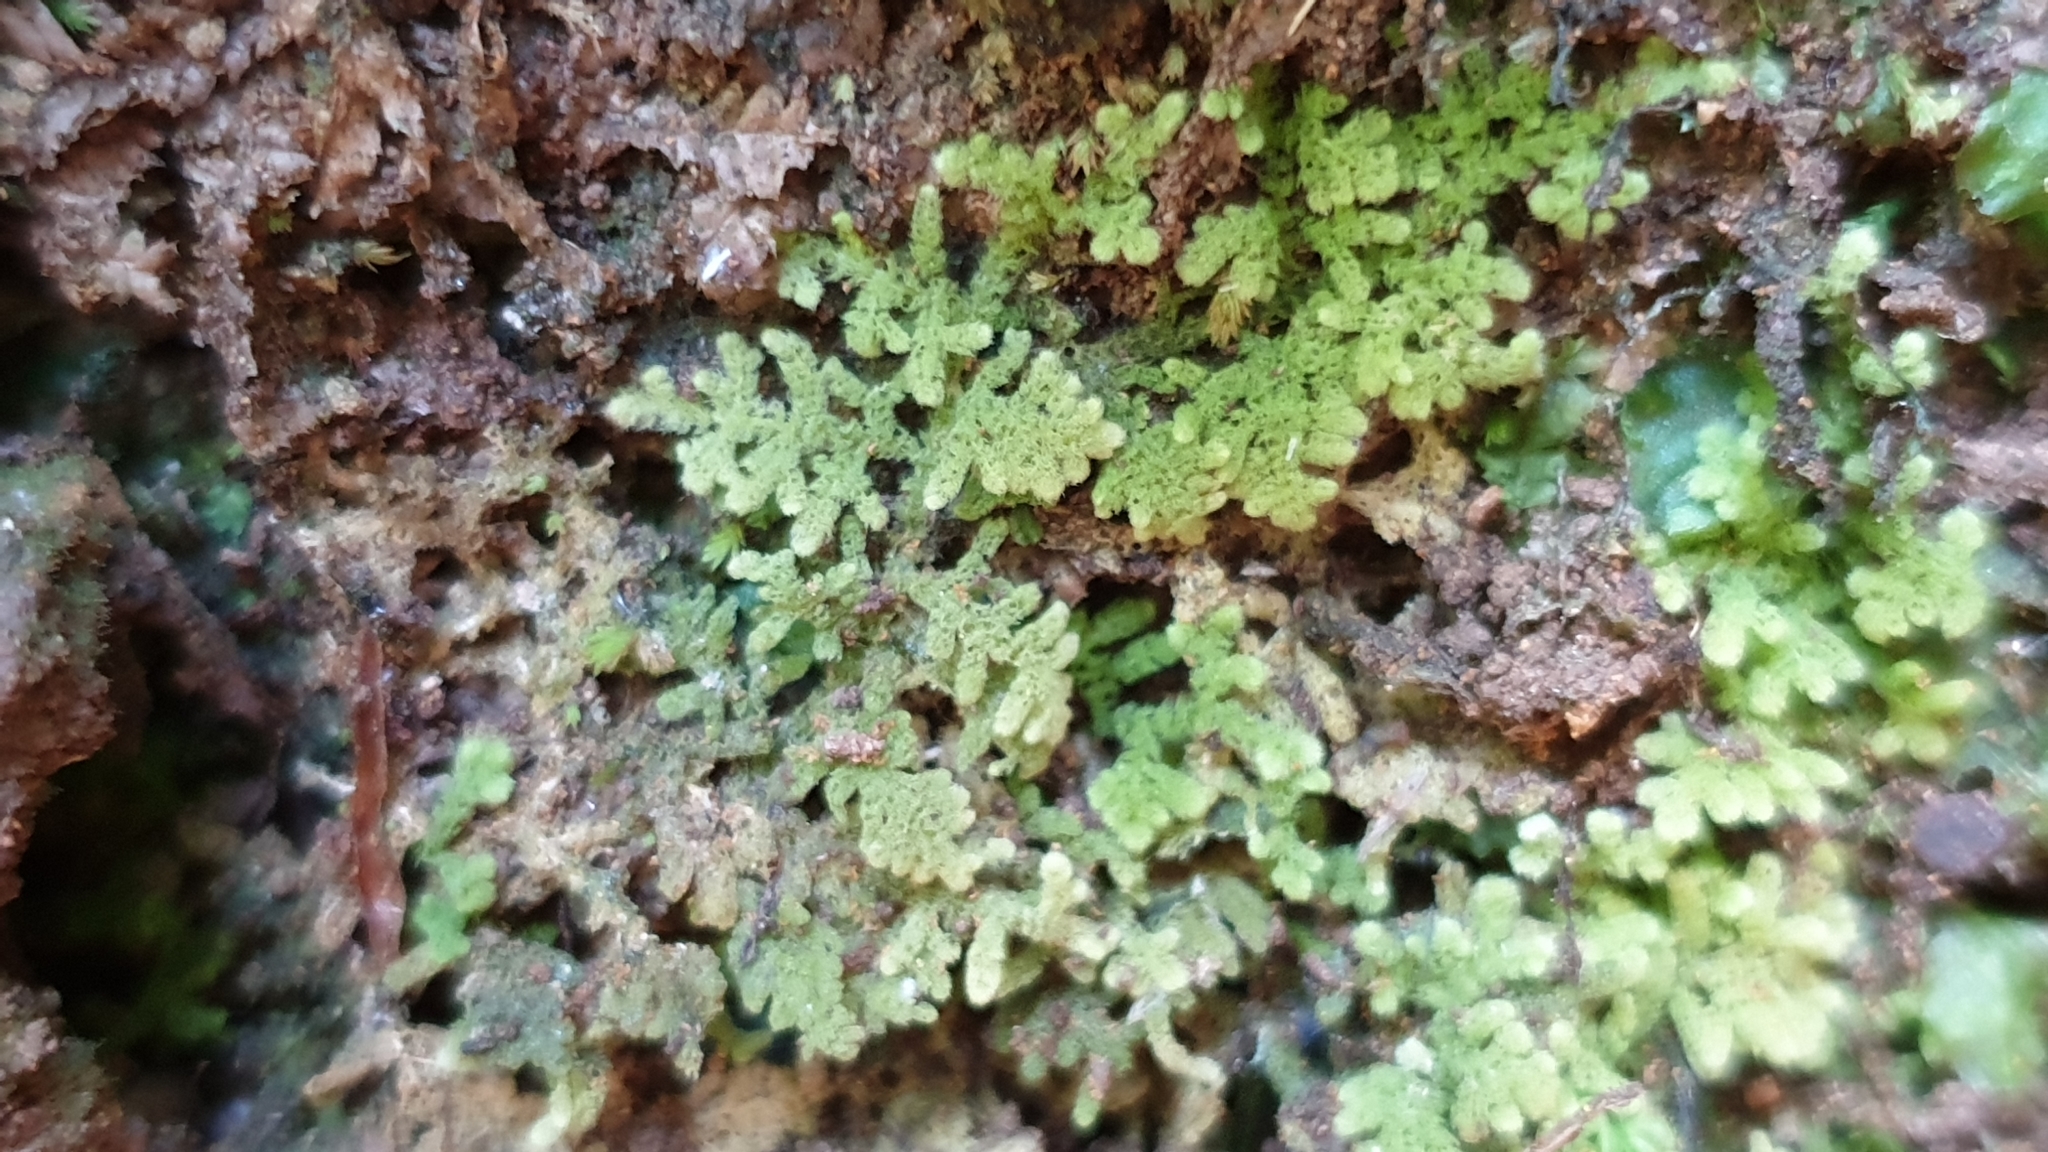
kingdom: Plantae
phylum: Marchantiophyta
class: Jungermanniopsida
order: Jungermanniales
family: Trichocoleaceae
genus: Trichocolea
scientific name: Trichocolea mollissima
